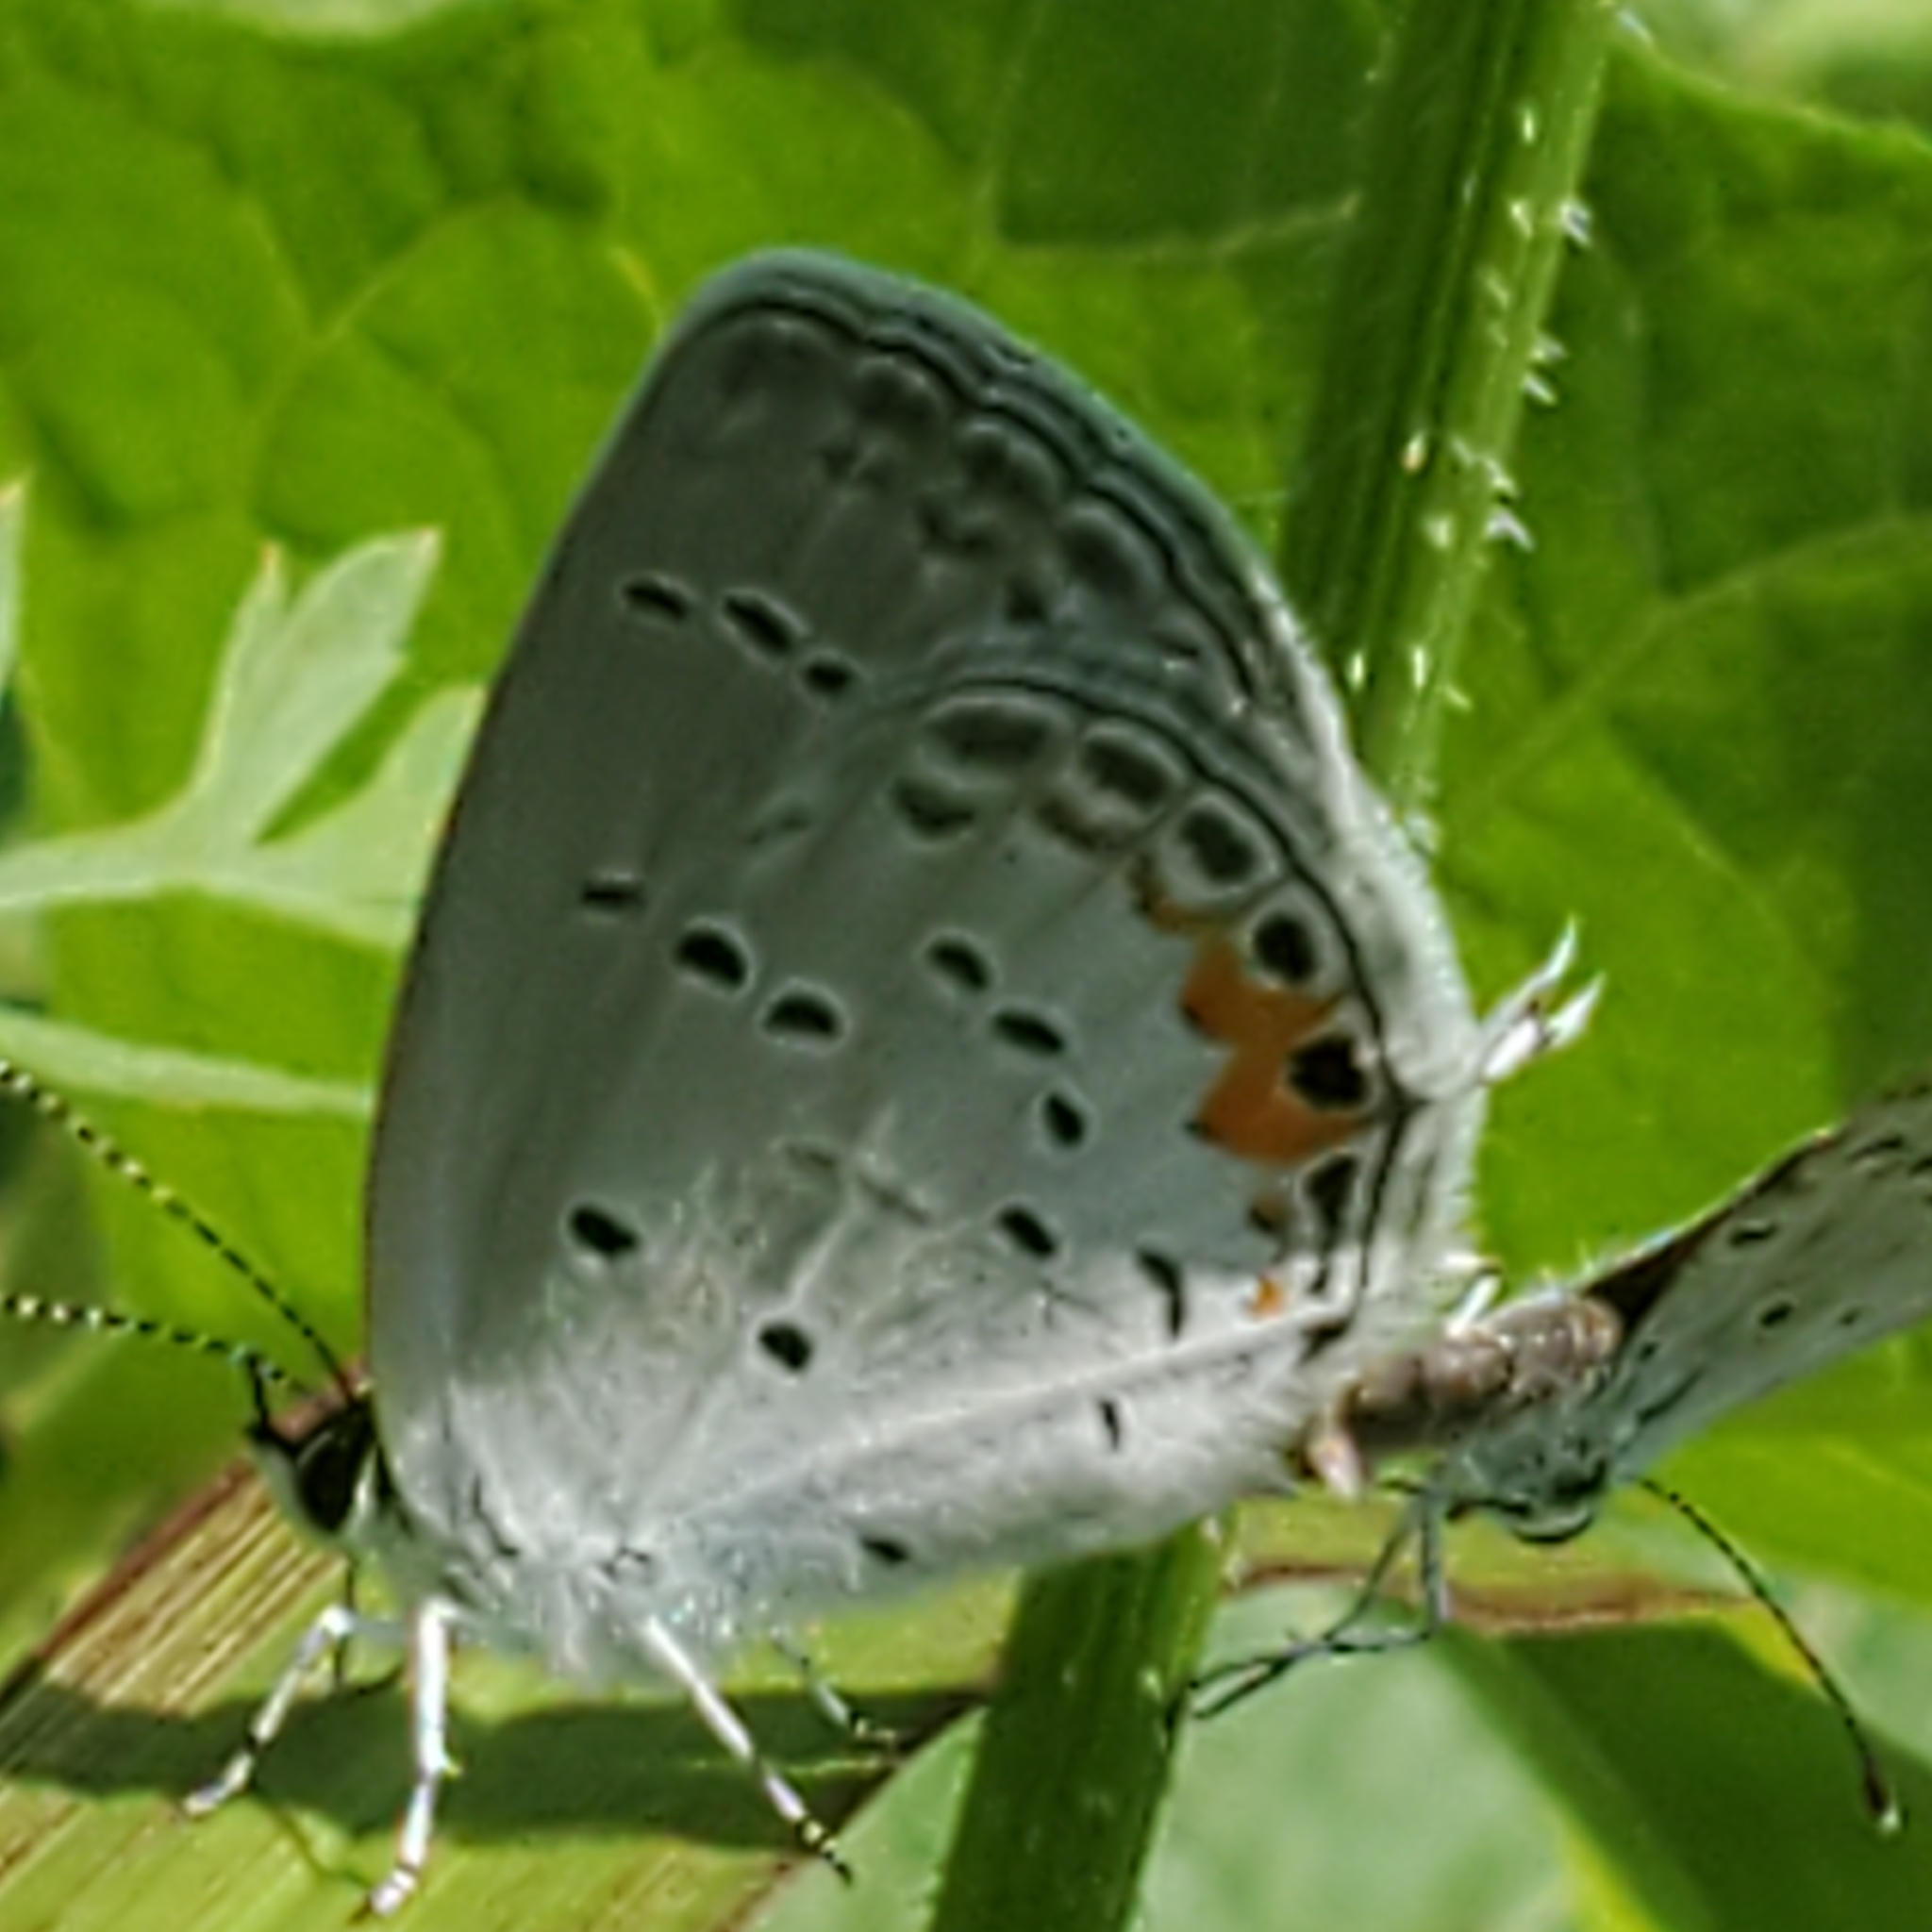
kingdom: Animalia
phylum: Arthropoda
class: Insecta
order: Lepidoptera
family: Lycaenidae
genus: Elkalyce
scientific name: Elkalyce comyntas
